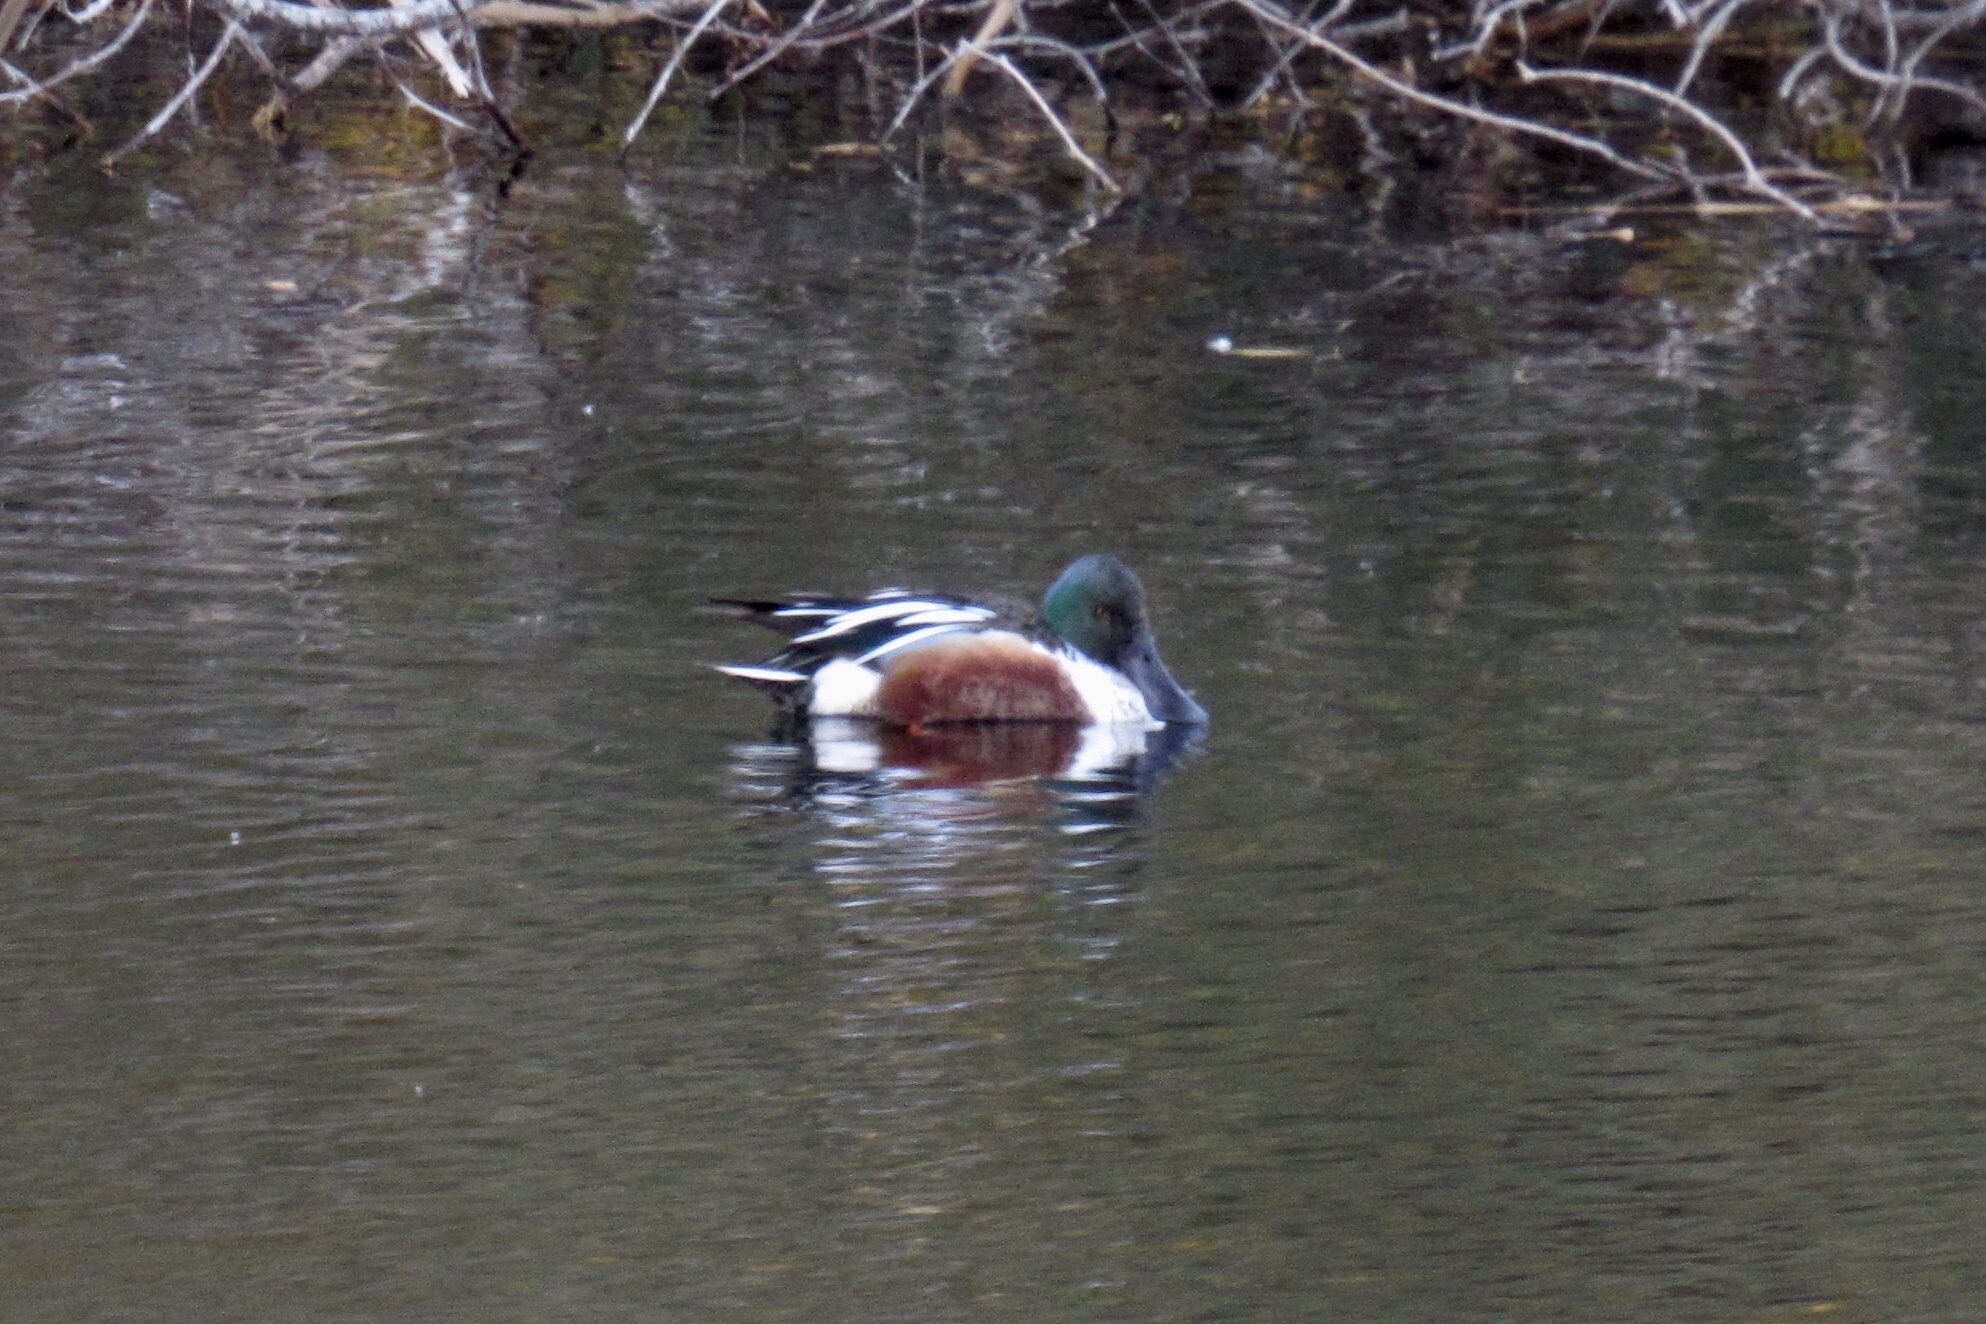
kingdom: Animalia
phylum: Chordata
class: Aves
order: Anseriformes
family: Anatidae
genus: Spatula
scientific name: Spatula clypeata
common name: Northern shoveler
